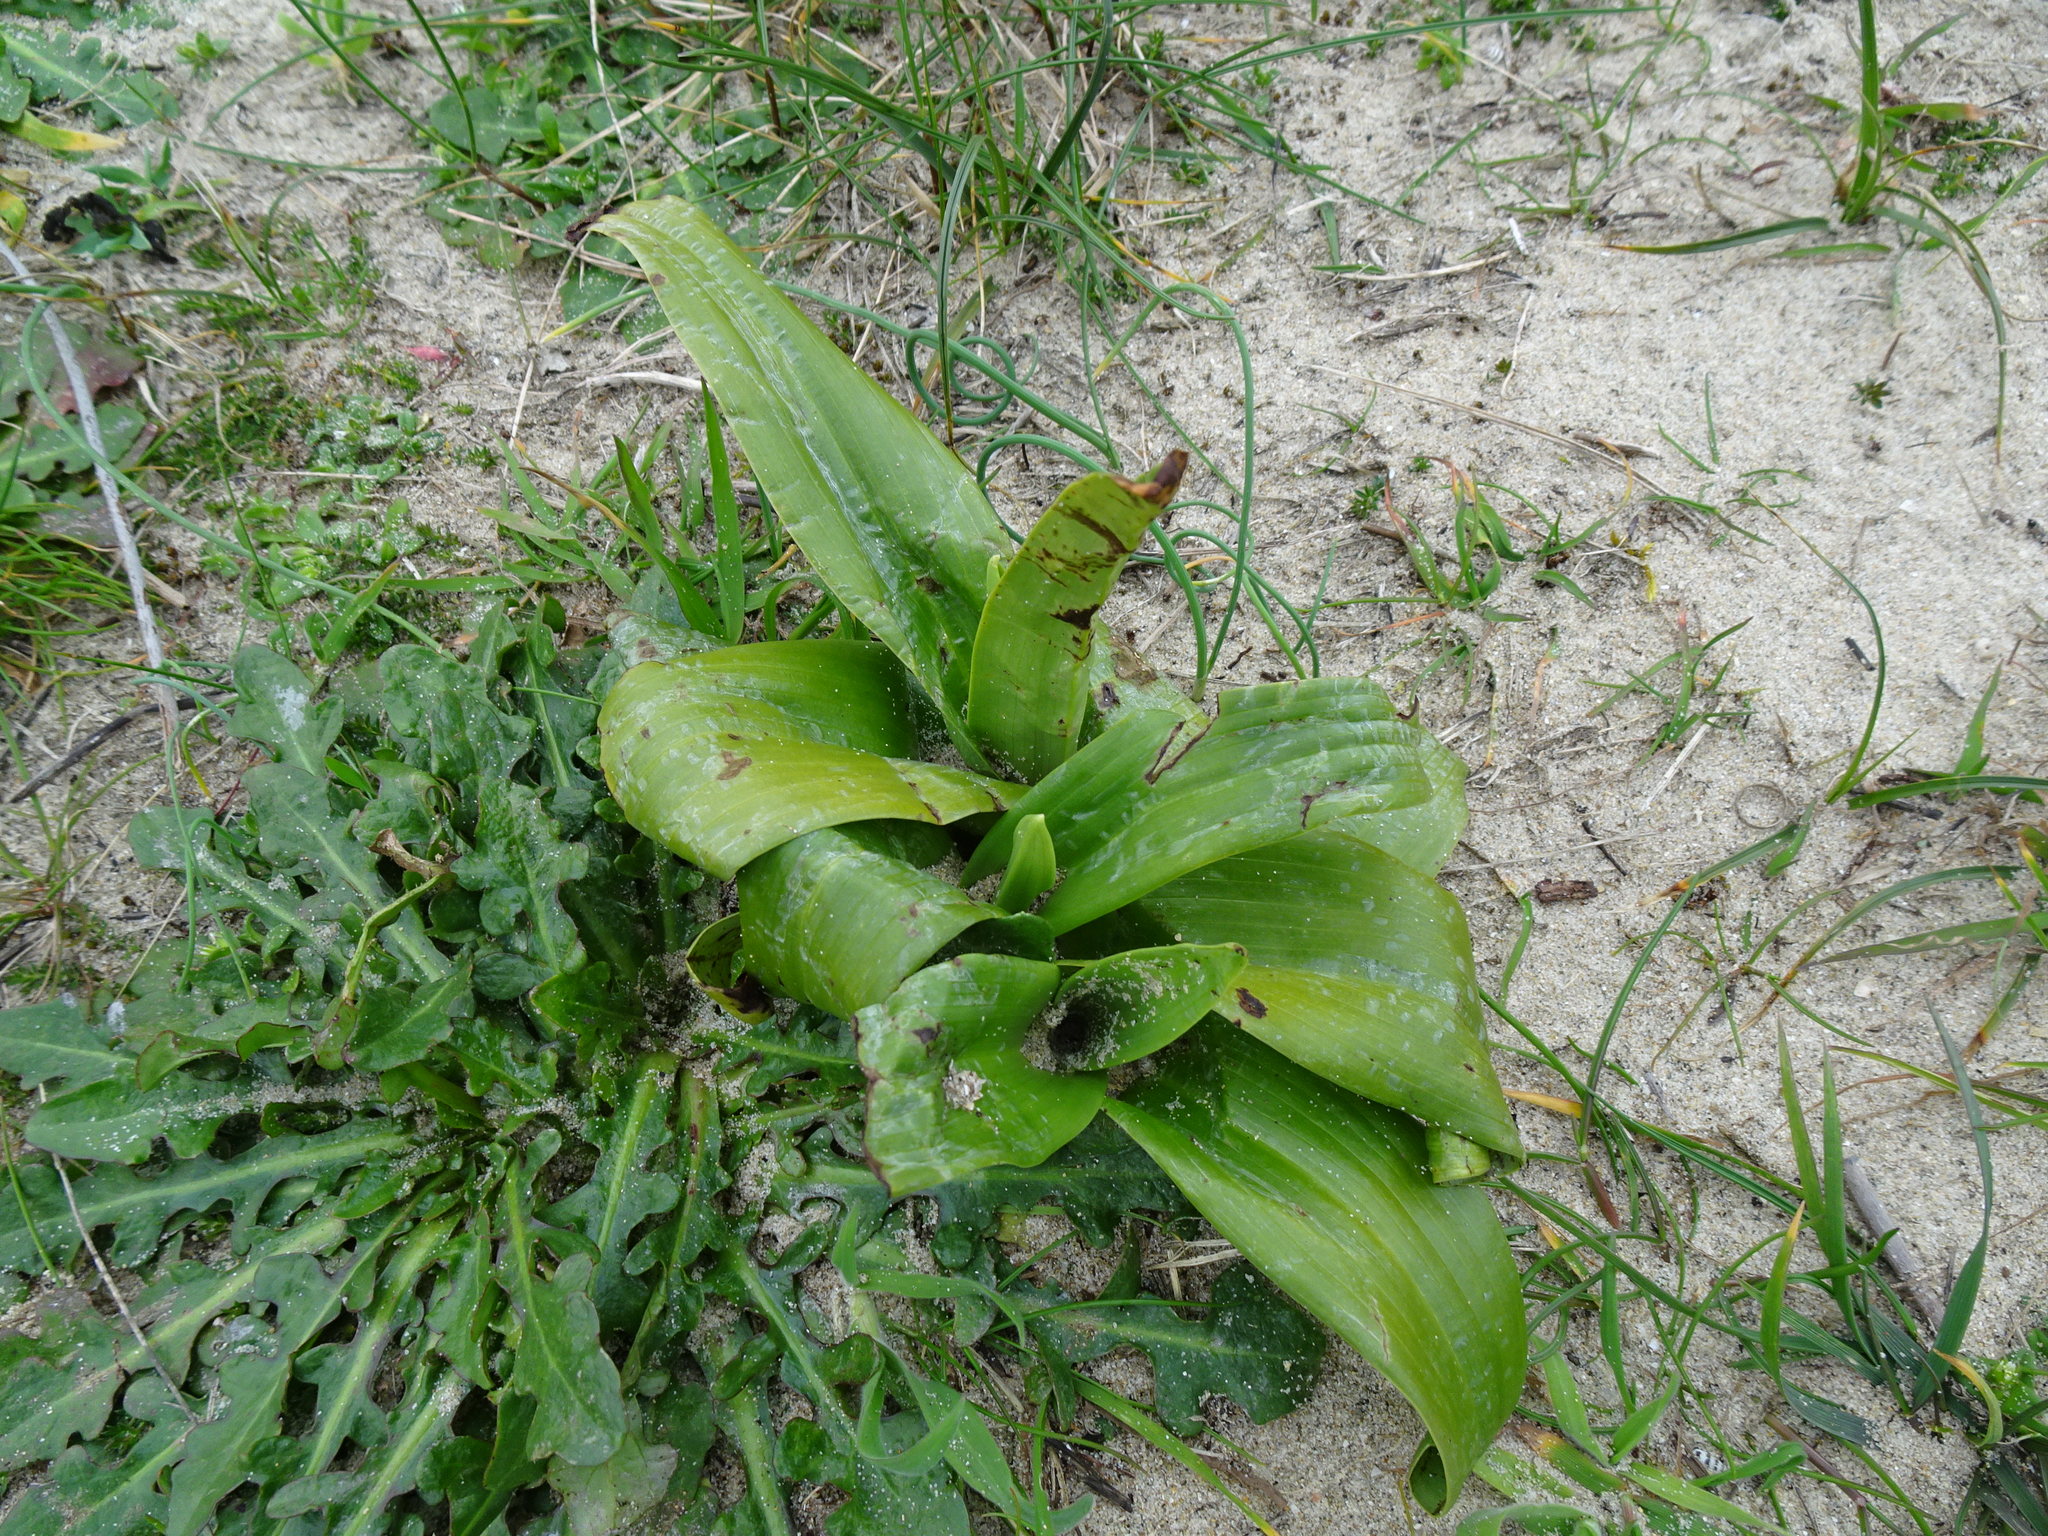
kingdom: Plantae
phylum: Tracheophyta
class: Liliopsida
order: Asparagales
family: Orchidaceae
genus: Himantoglossum
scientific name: Himantoglossum hircinum
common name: Lizard orchid
